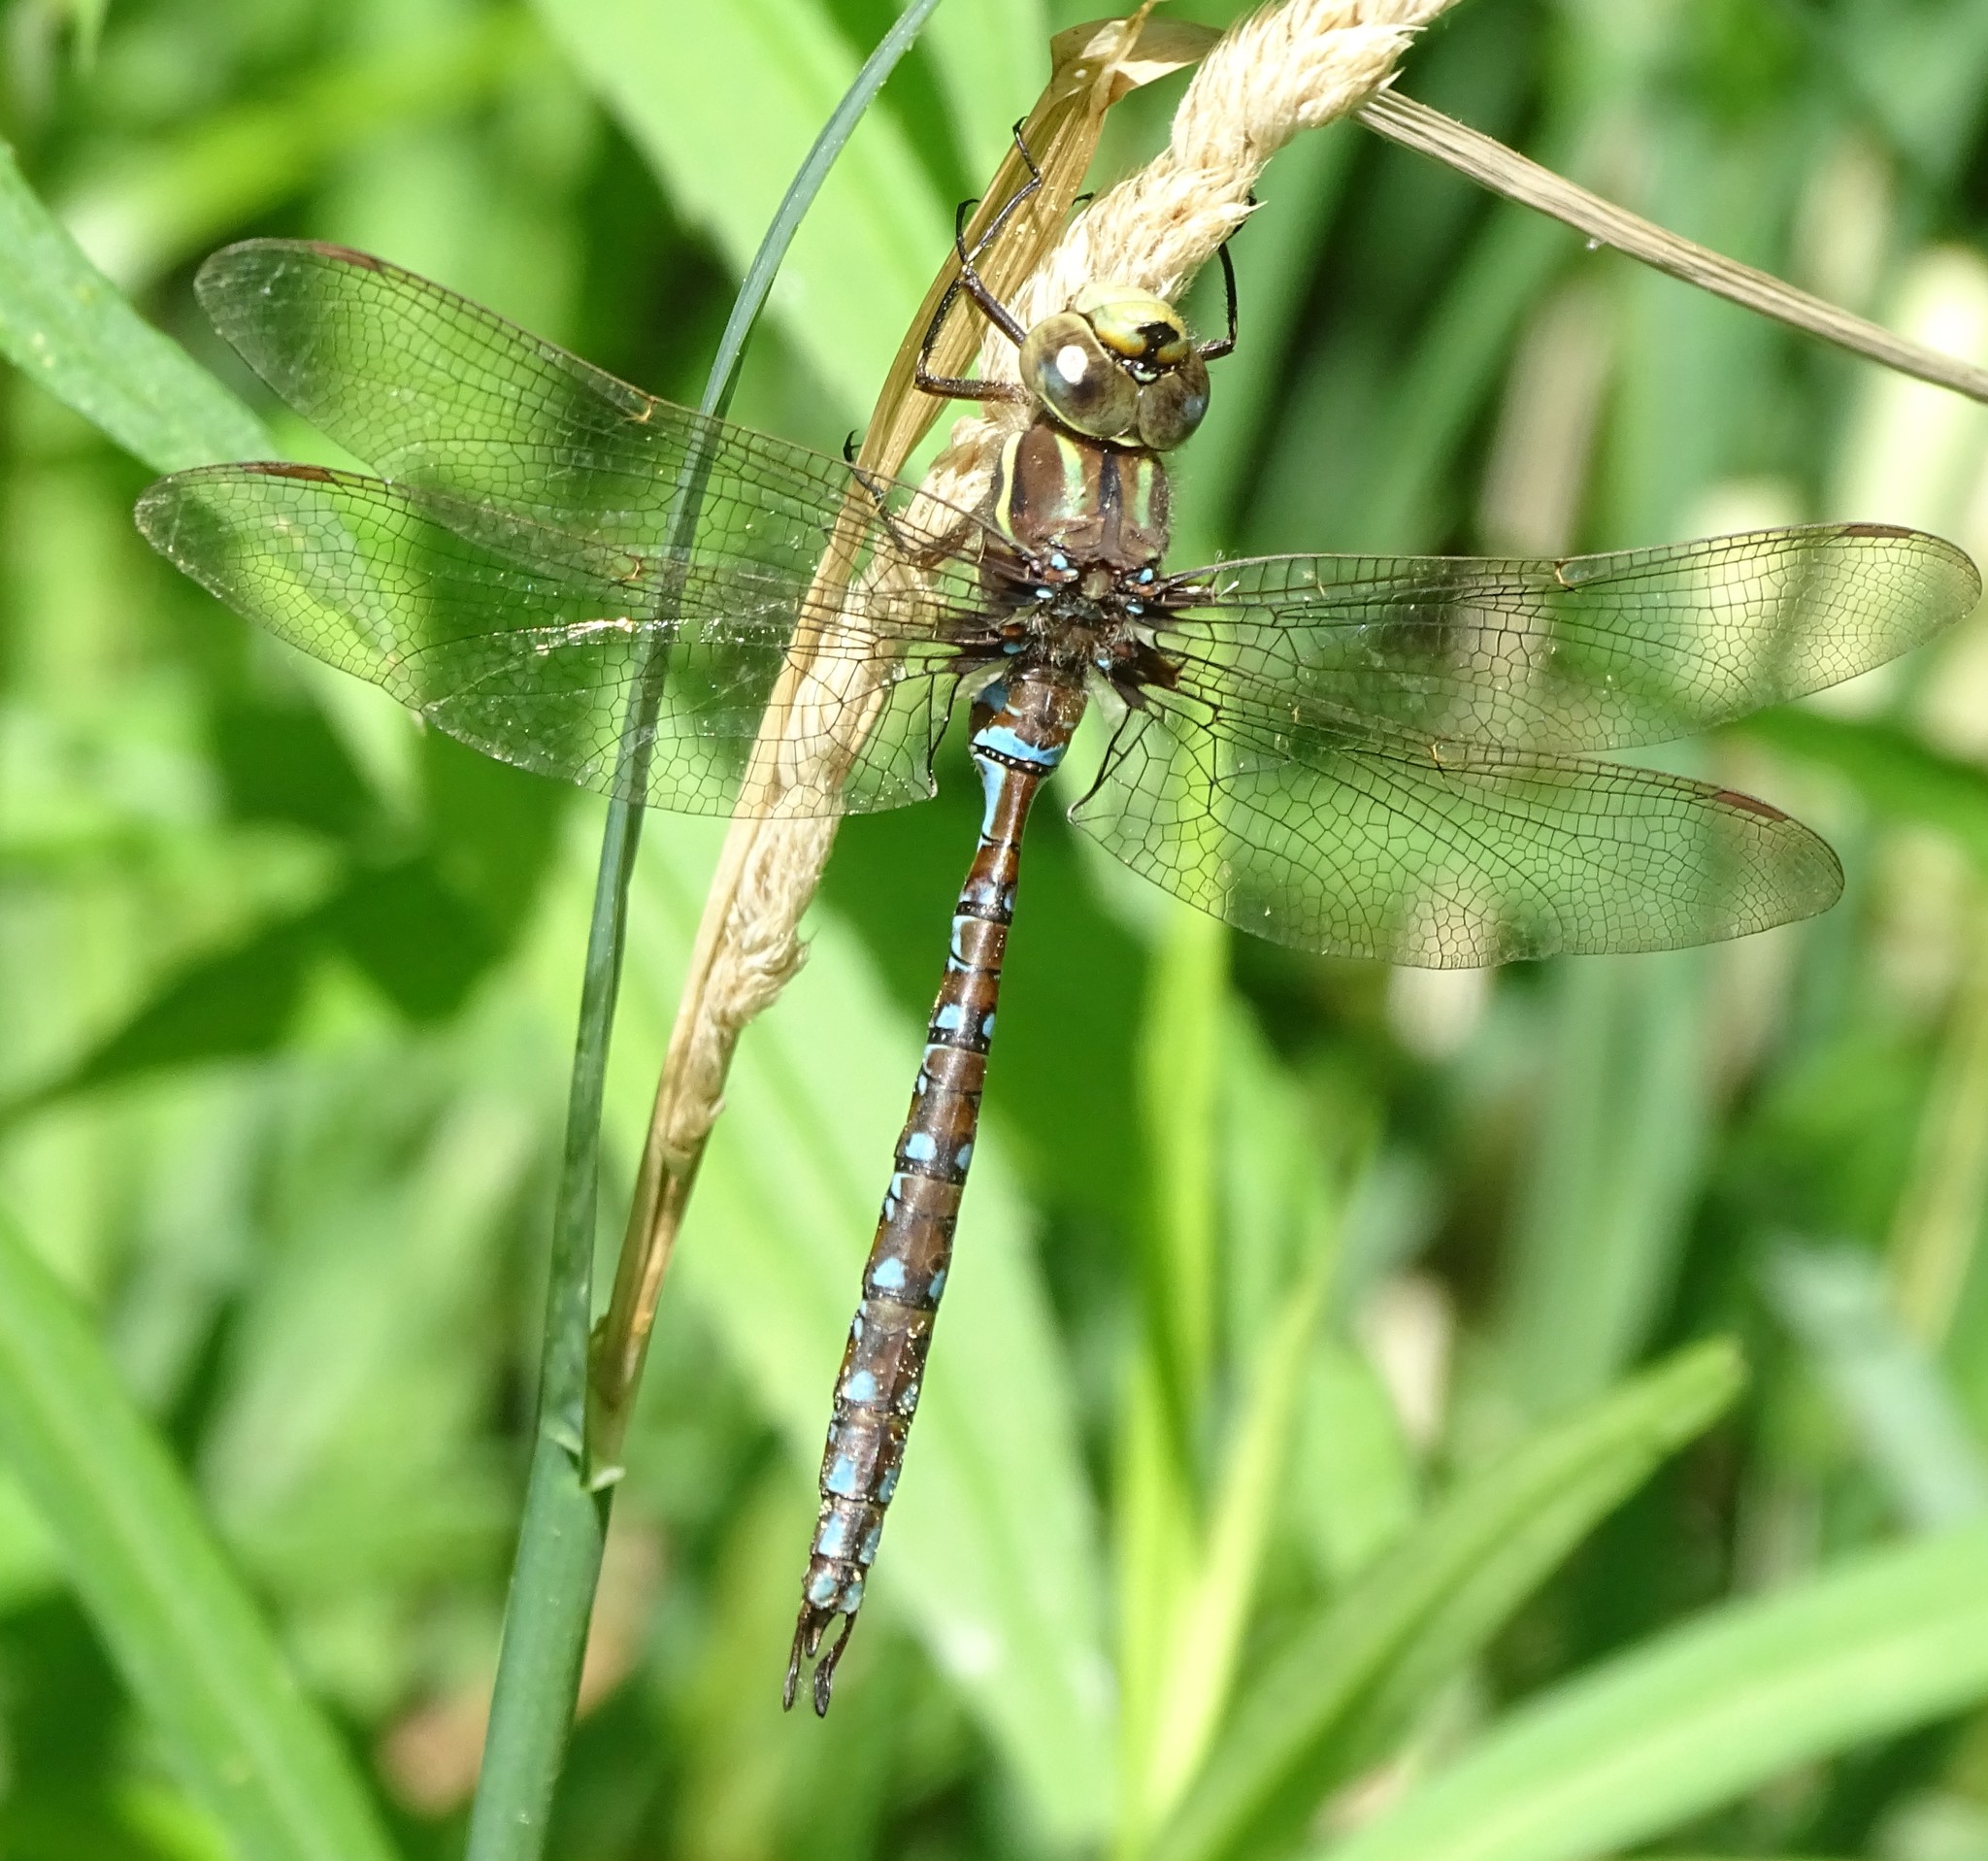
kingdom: Animalia
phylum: Arthropoda
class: Insecta
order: Odonata
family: Aeshnidae
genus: Basiaeschna
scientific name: Basiaeschna janata
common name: Springtime darner
